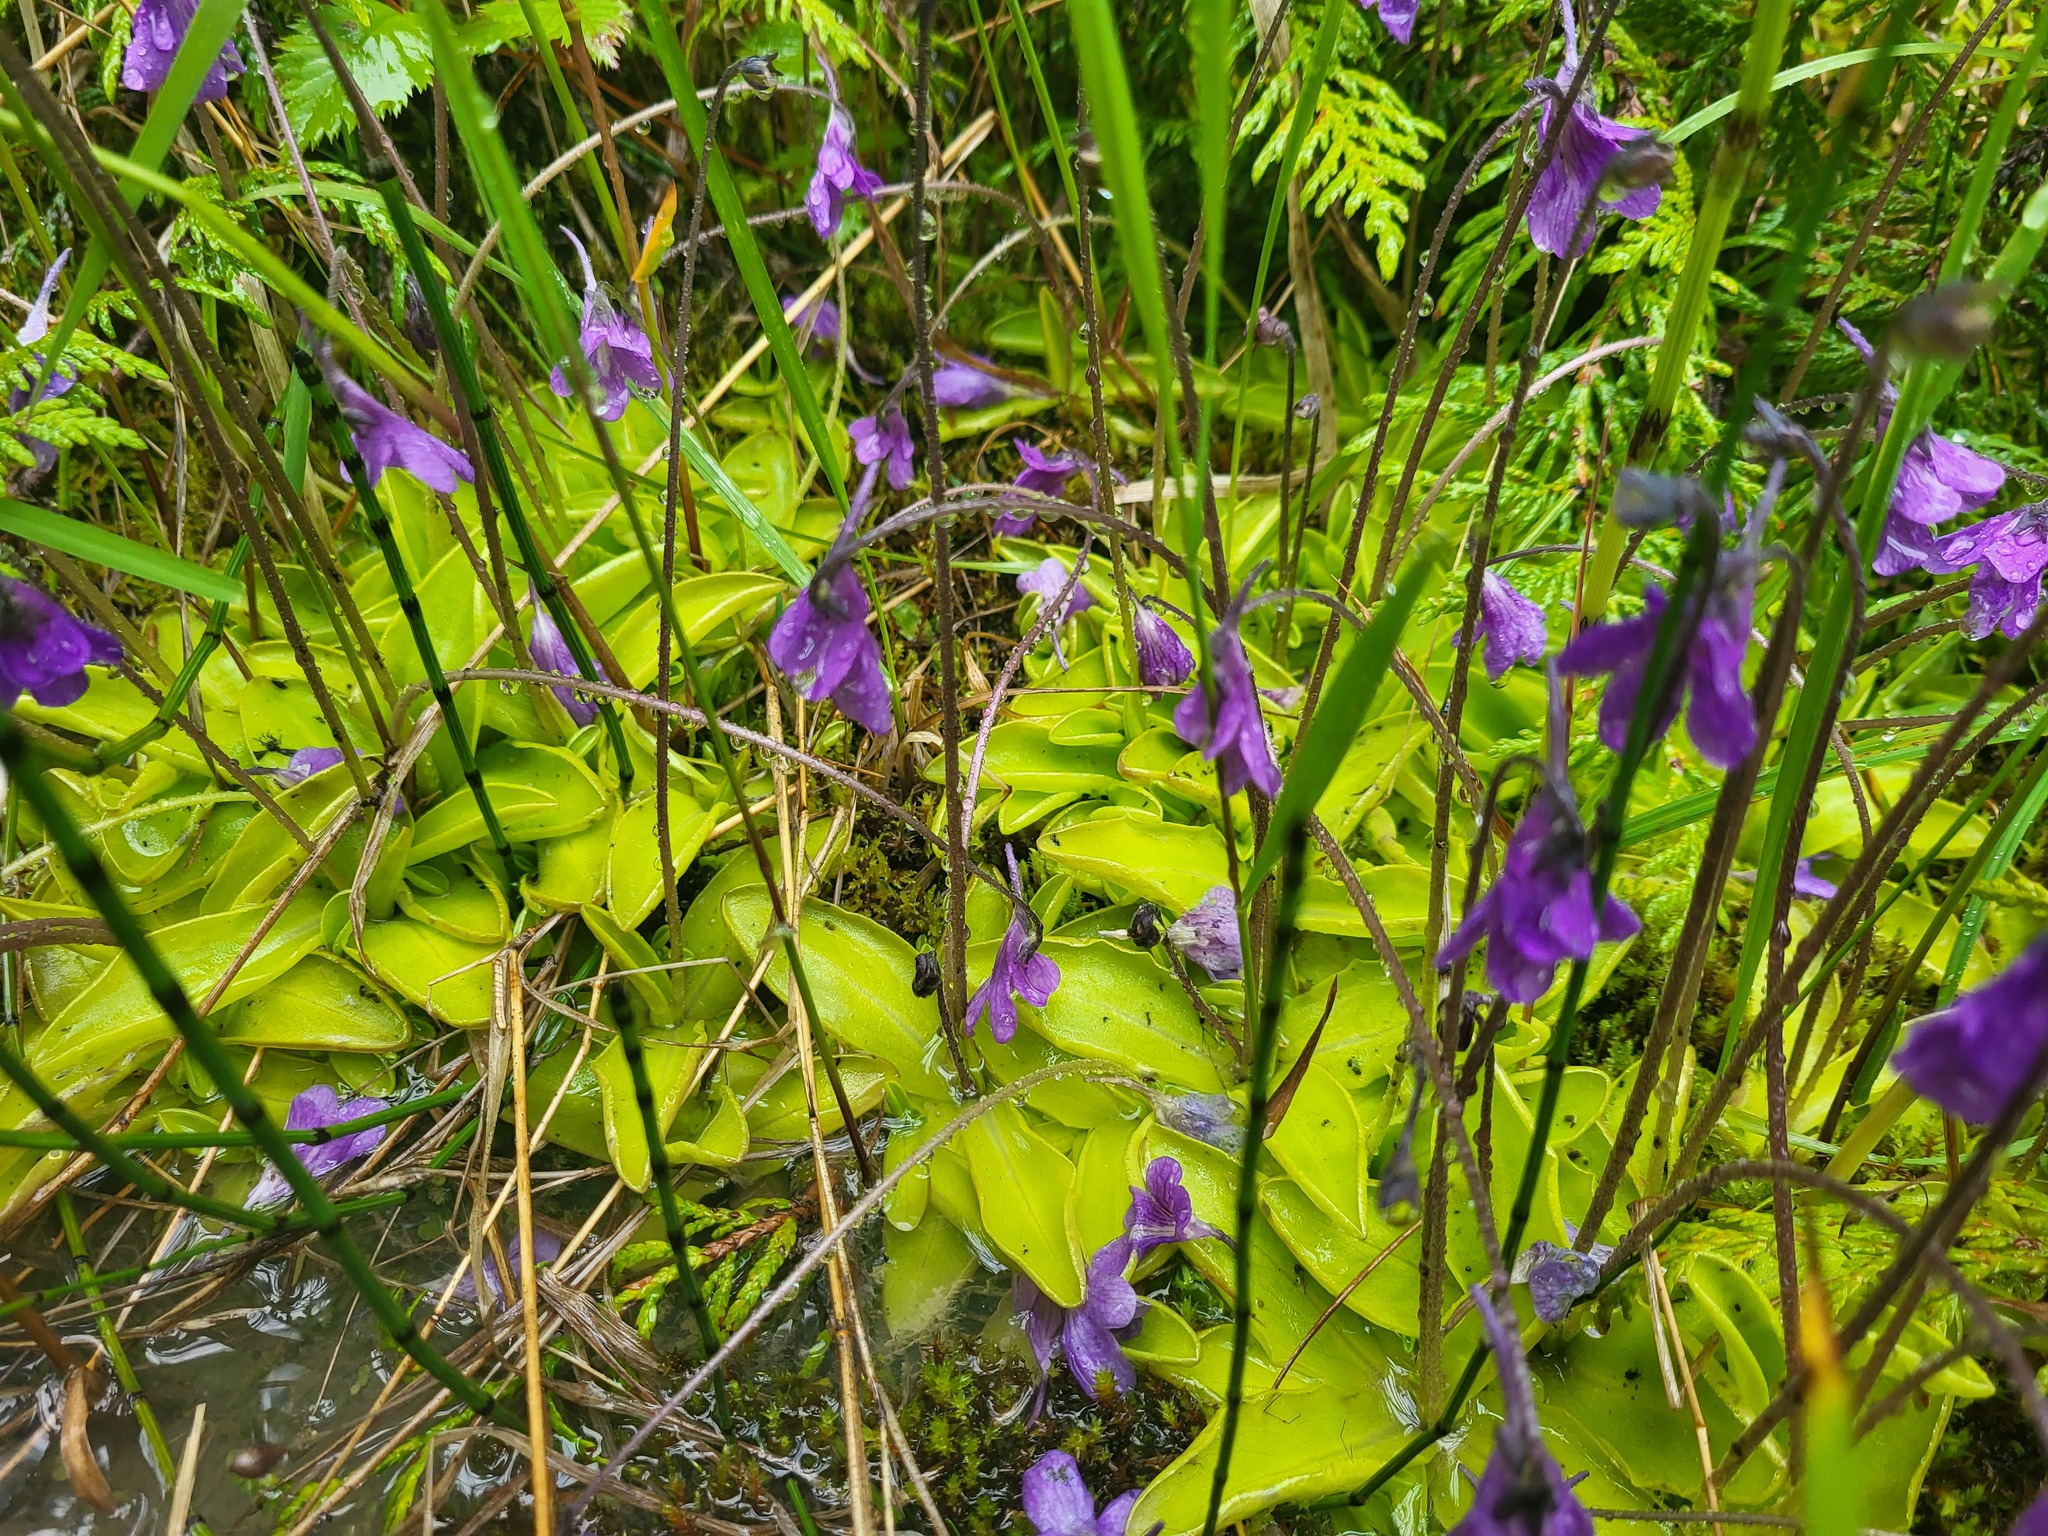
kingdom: Plantae
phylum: Tracheophyta
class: Magnoliopsida
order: Lamiales
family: Lentibulariaceae
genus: Pinguicula
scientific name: Pinguicula vulgaris
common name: Common butterwort
